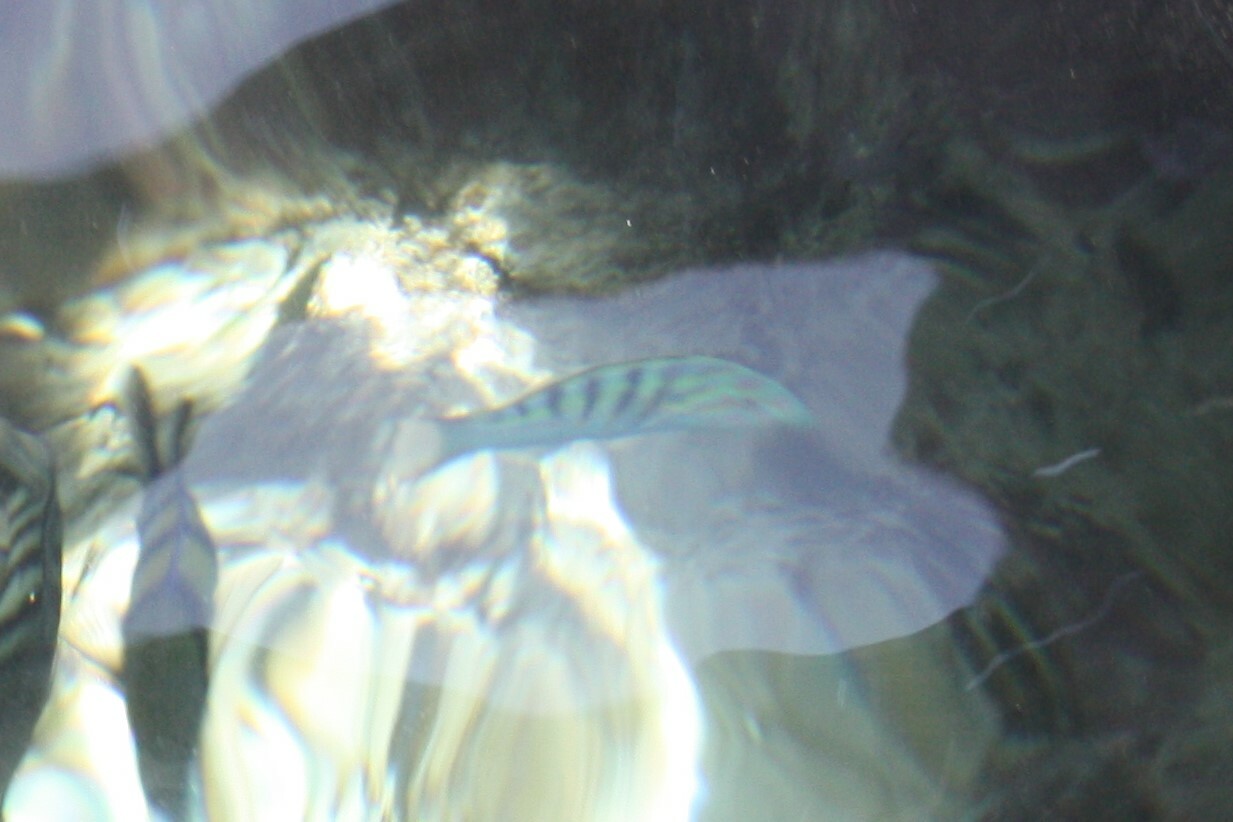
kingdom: Animalia
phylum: Chordata
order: Perciformes
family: Labridae
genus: Thalassoma
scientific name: Thalassoma hardwicke
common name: Sixbar wrasse
